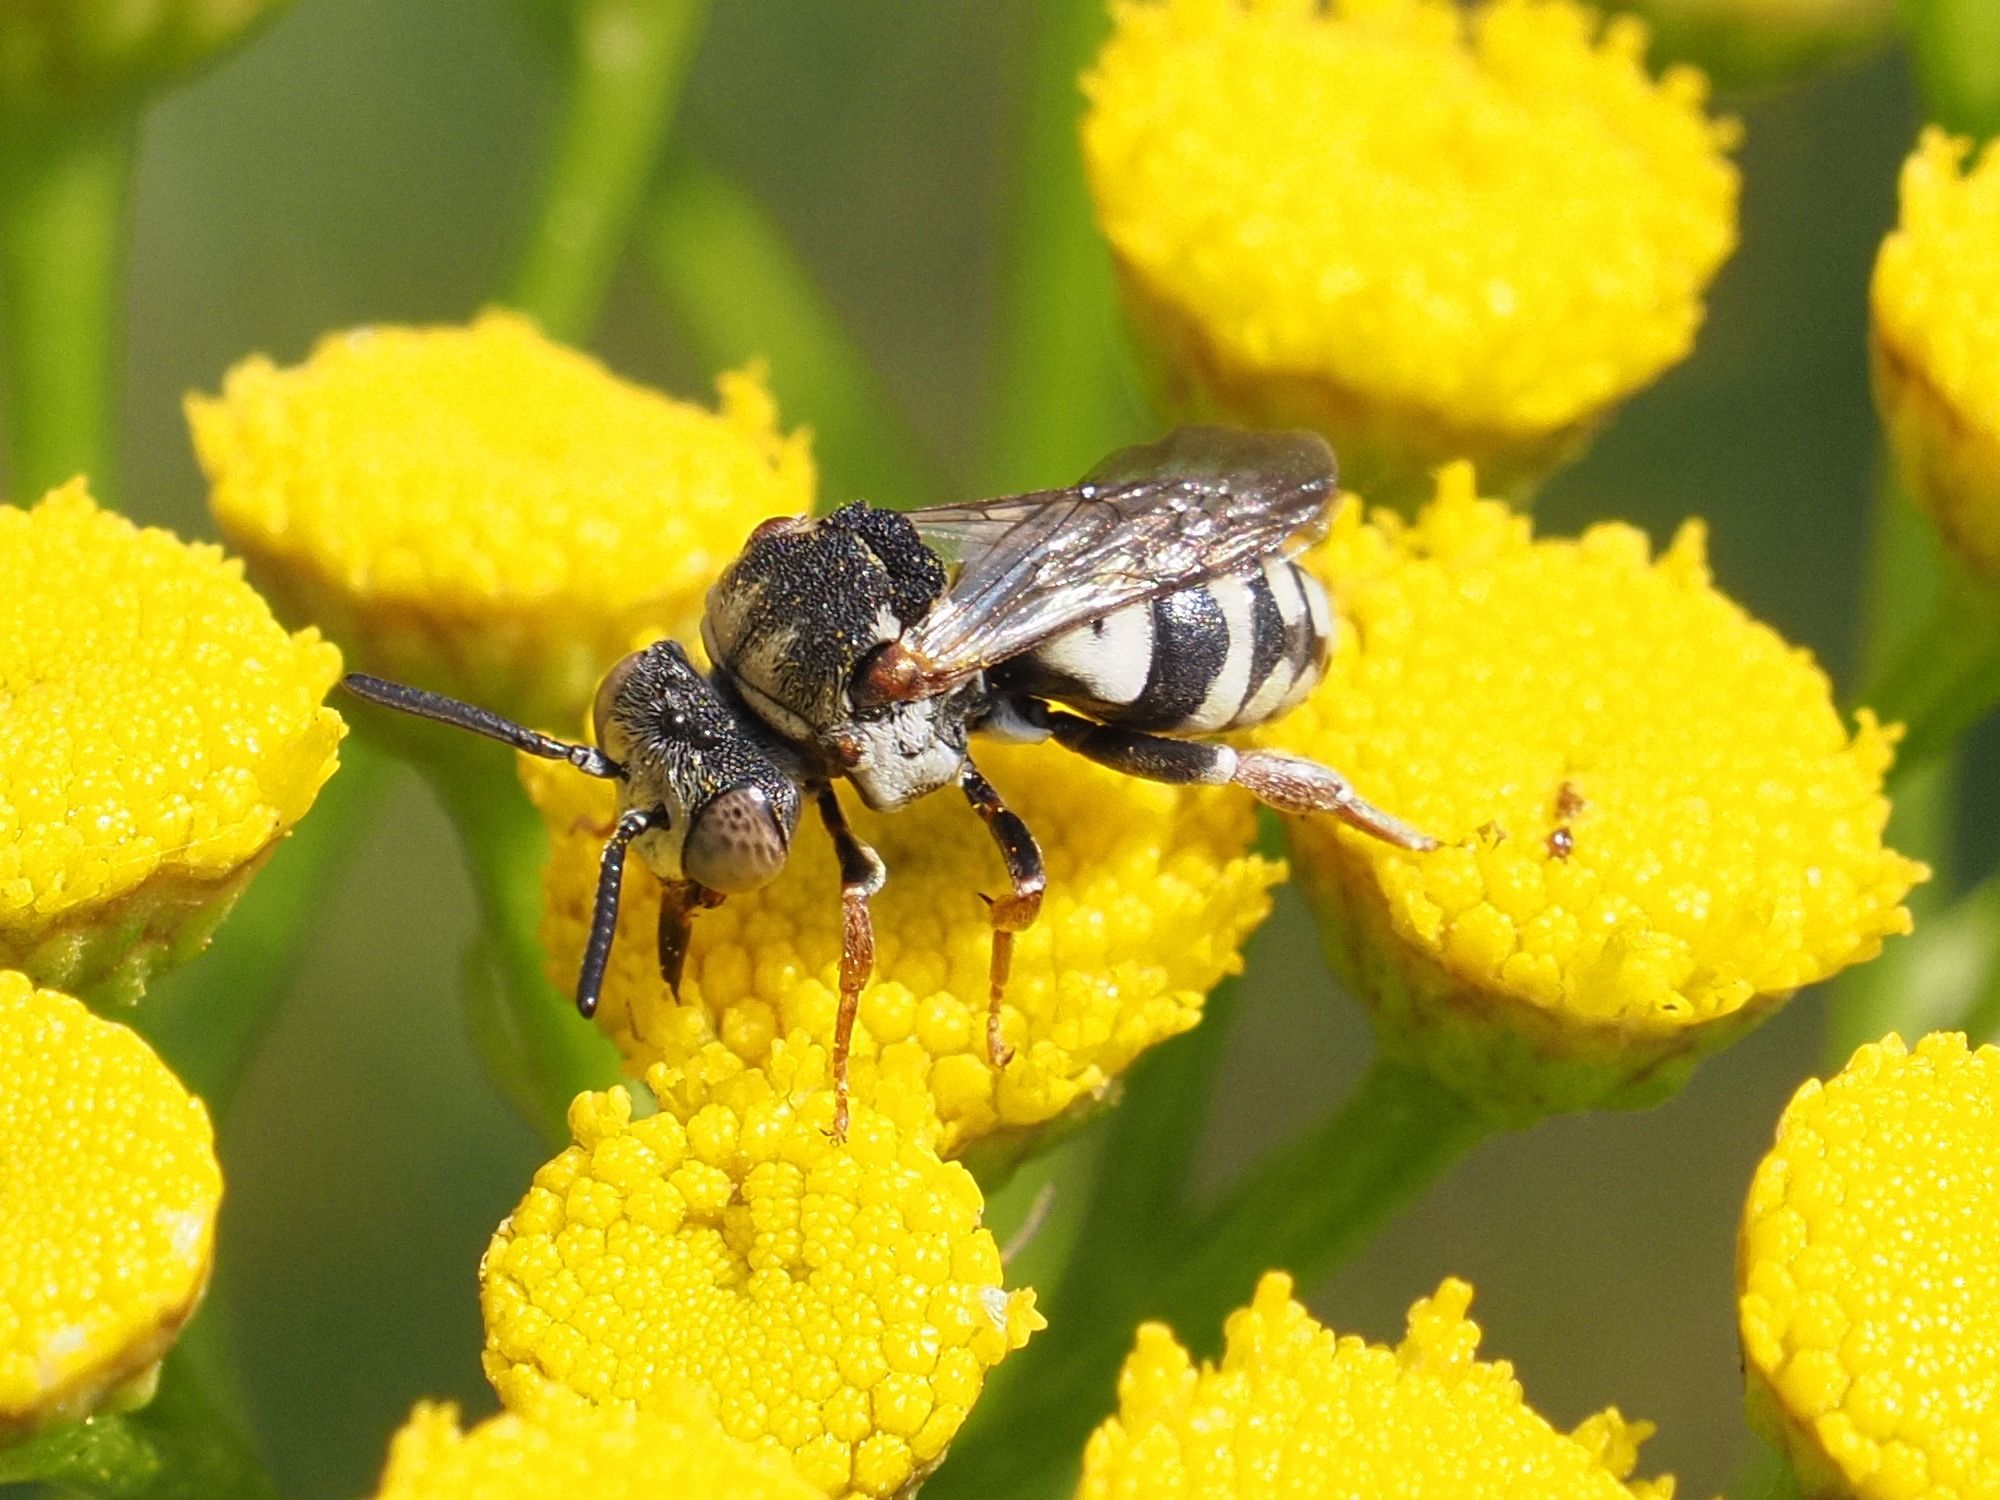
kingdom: Animalia
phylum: Arthropoda
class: Insecta
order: Hymenoptera
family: Apidae
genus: Epeolus
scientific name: Epeolus variegatus
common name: Black-thighed epeolus
